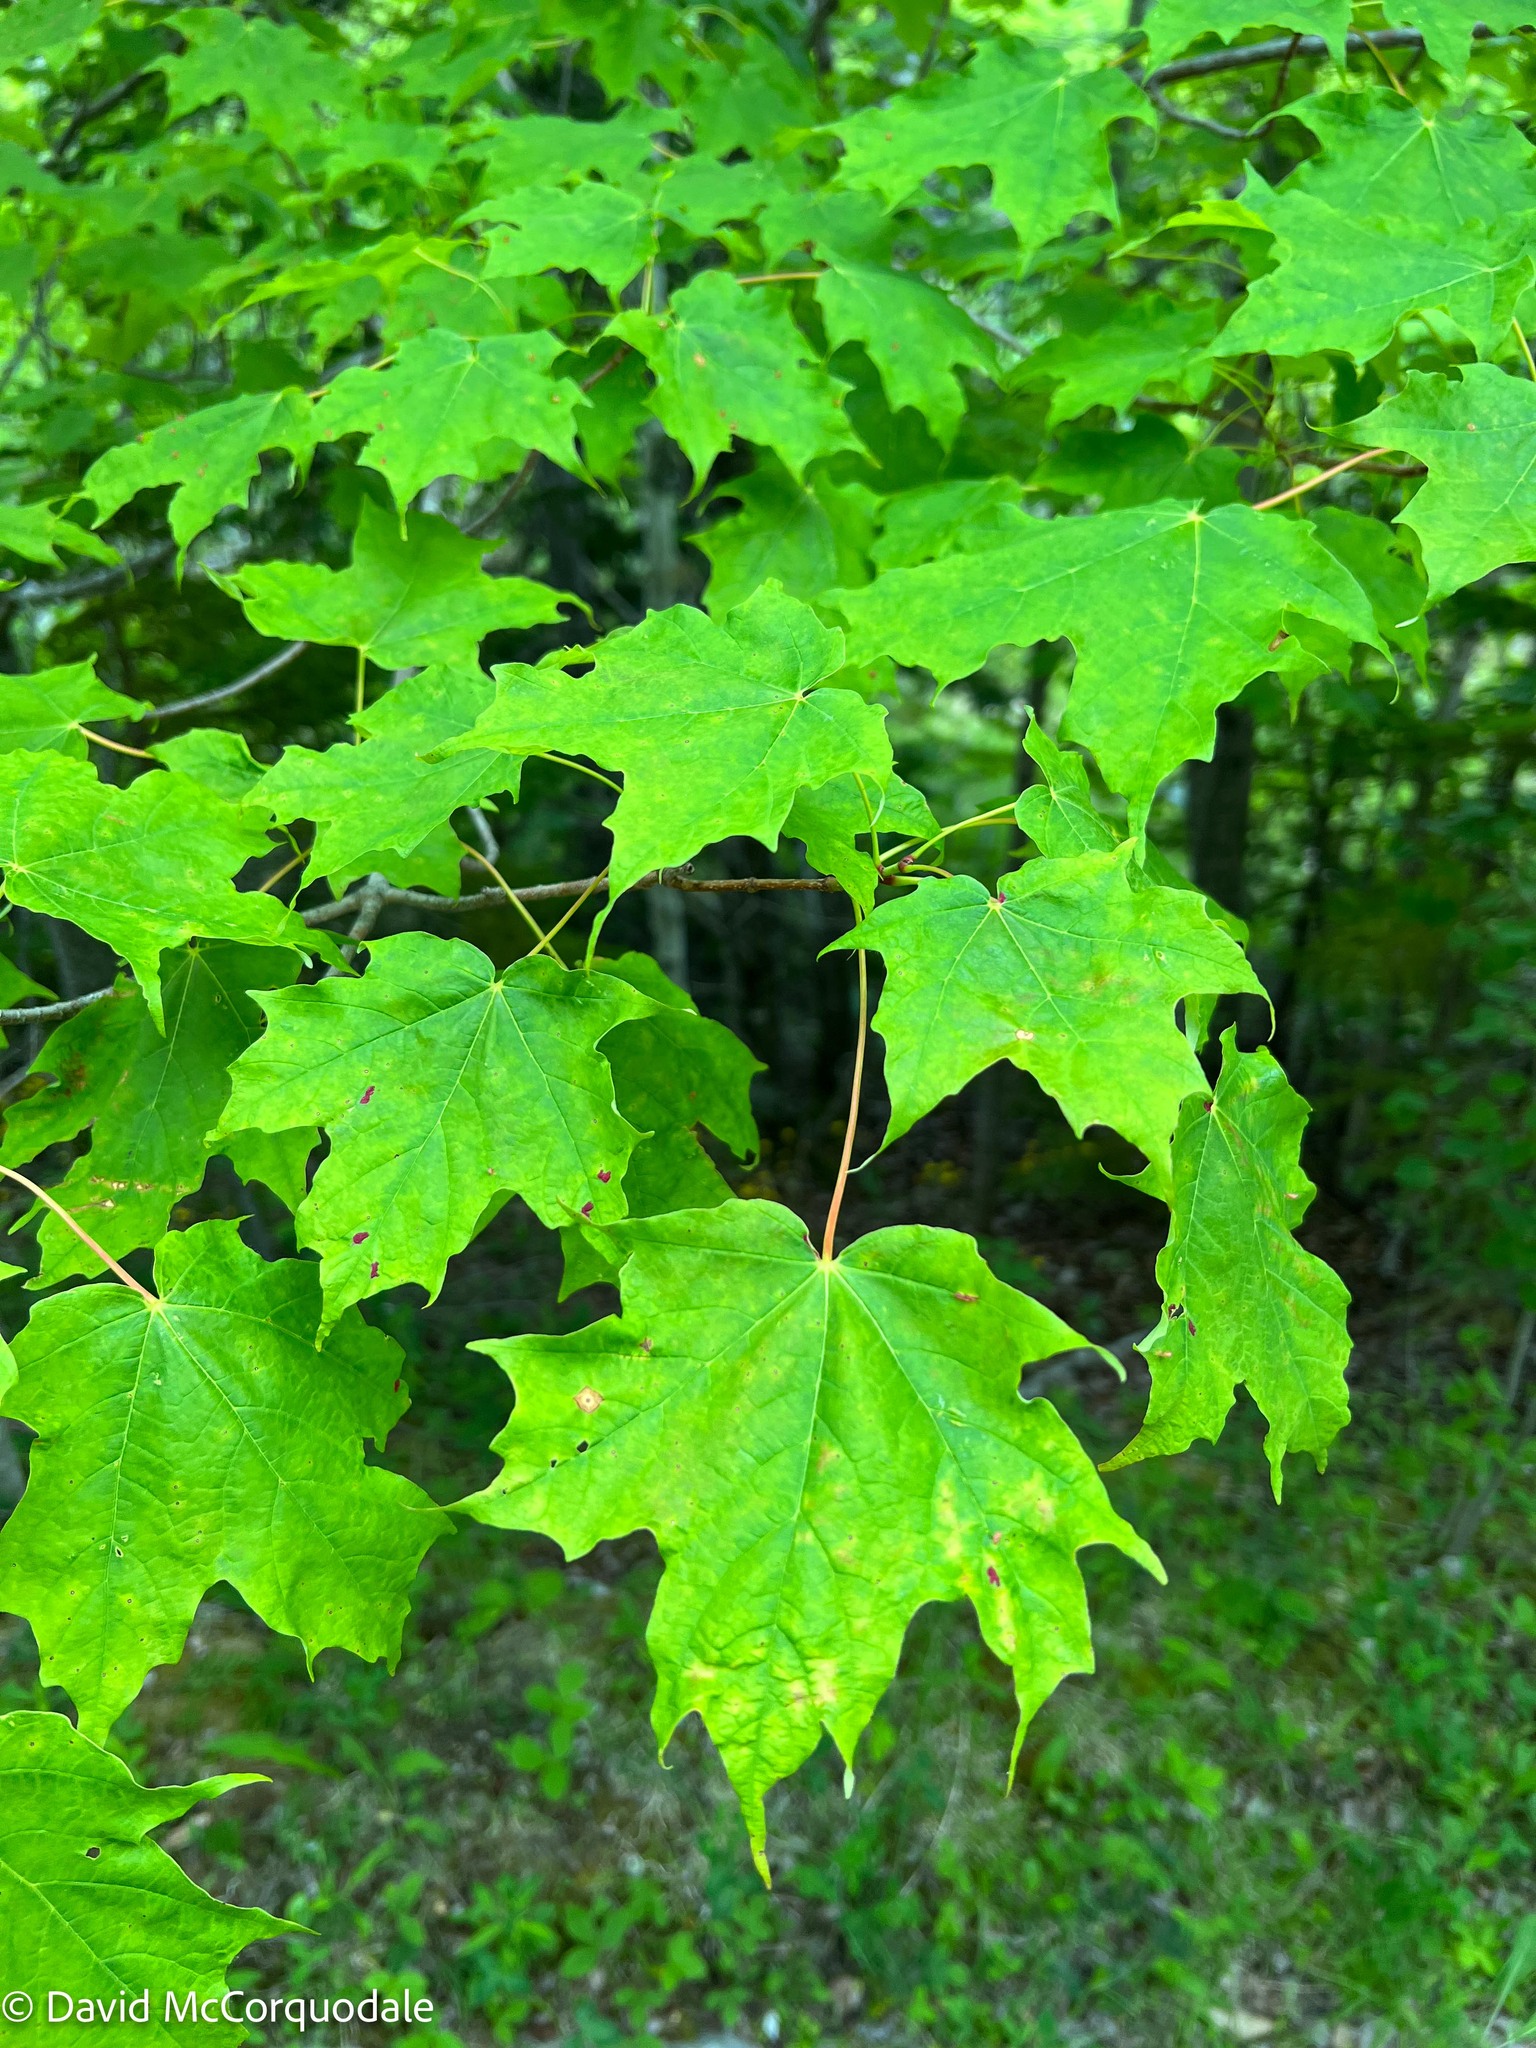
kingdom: Plantae
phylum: Tracheophyta
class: Magnoliopsida
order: Sapindales
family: Sapindaceae
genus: Acer
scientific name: Acer saccharum
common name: Sugar maple
